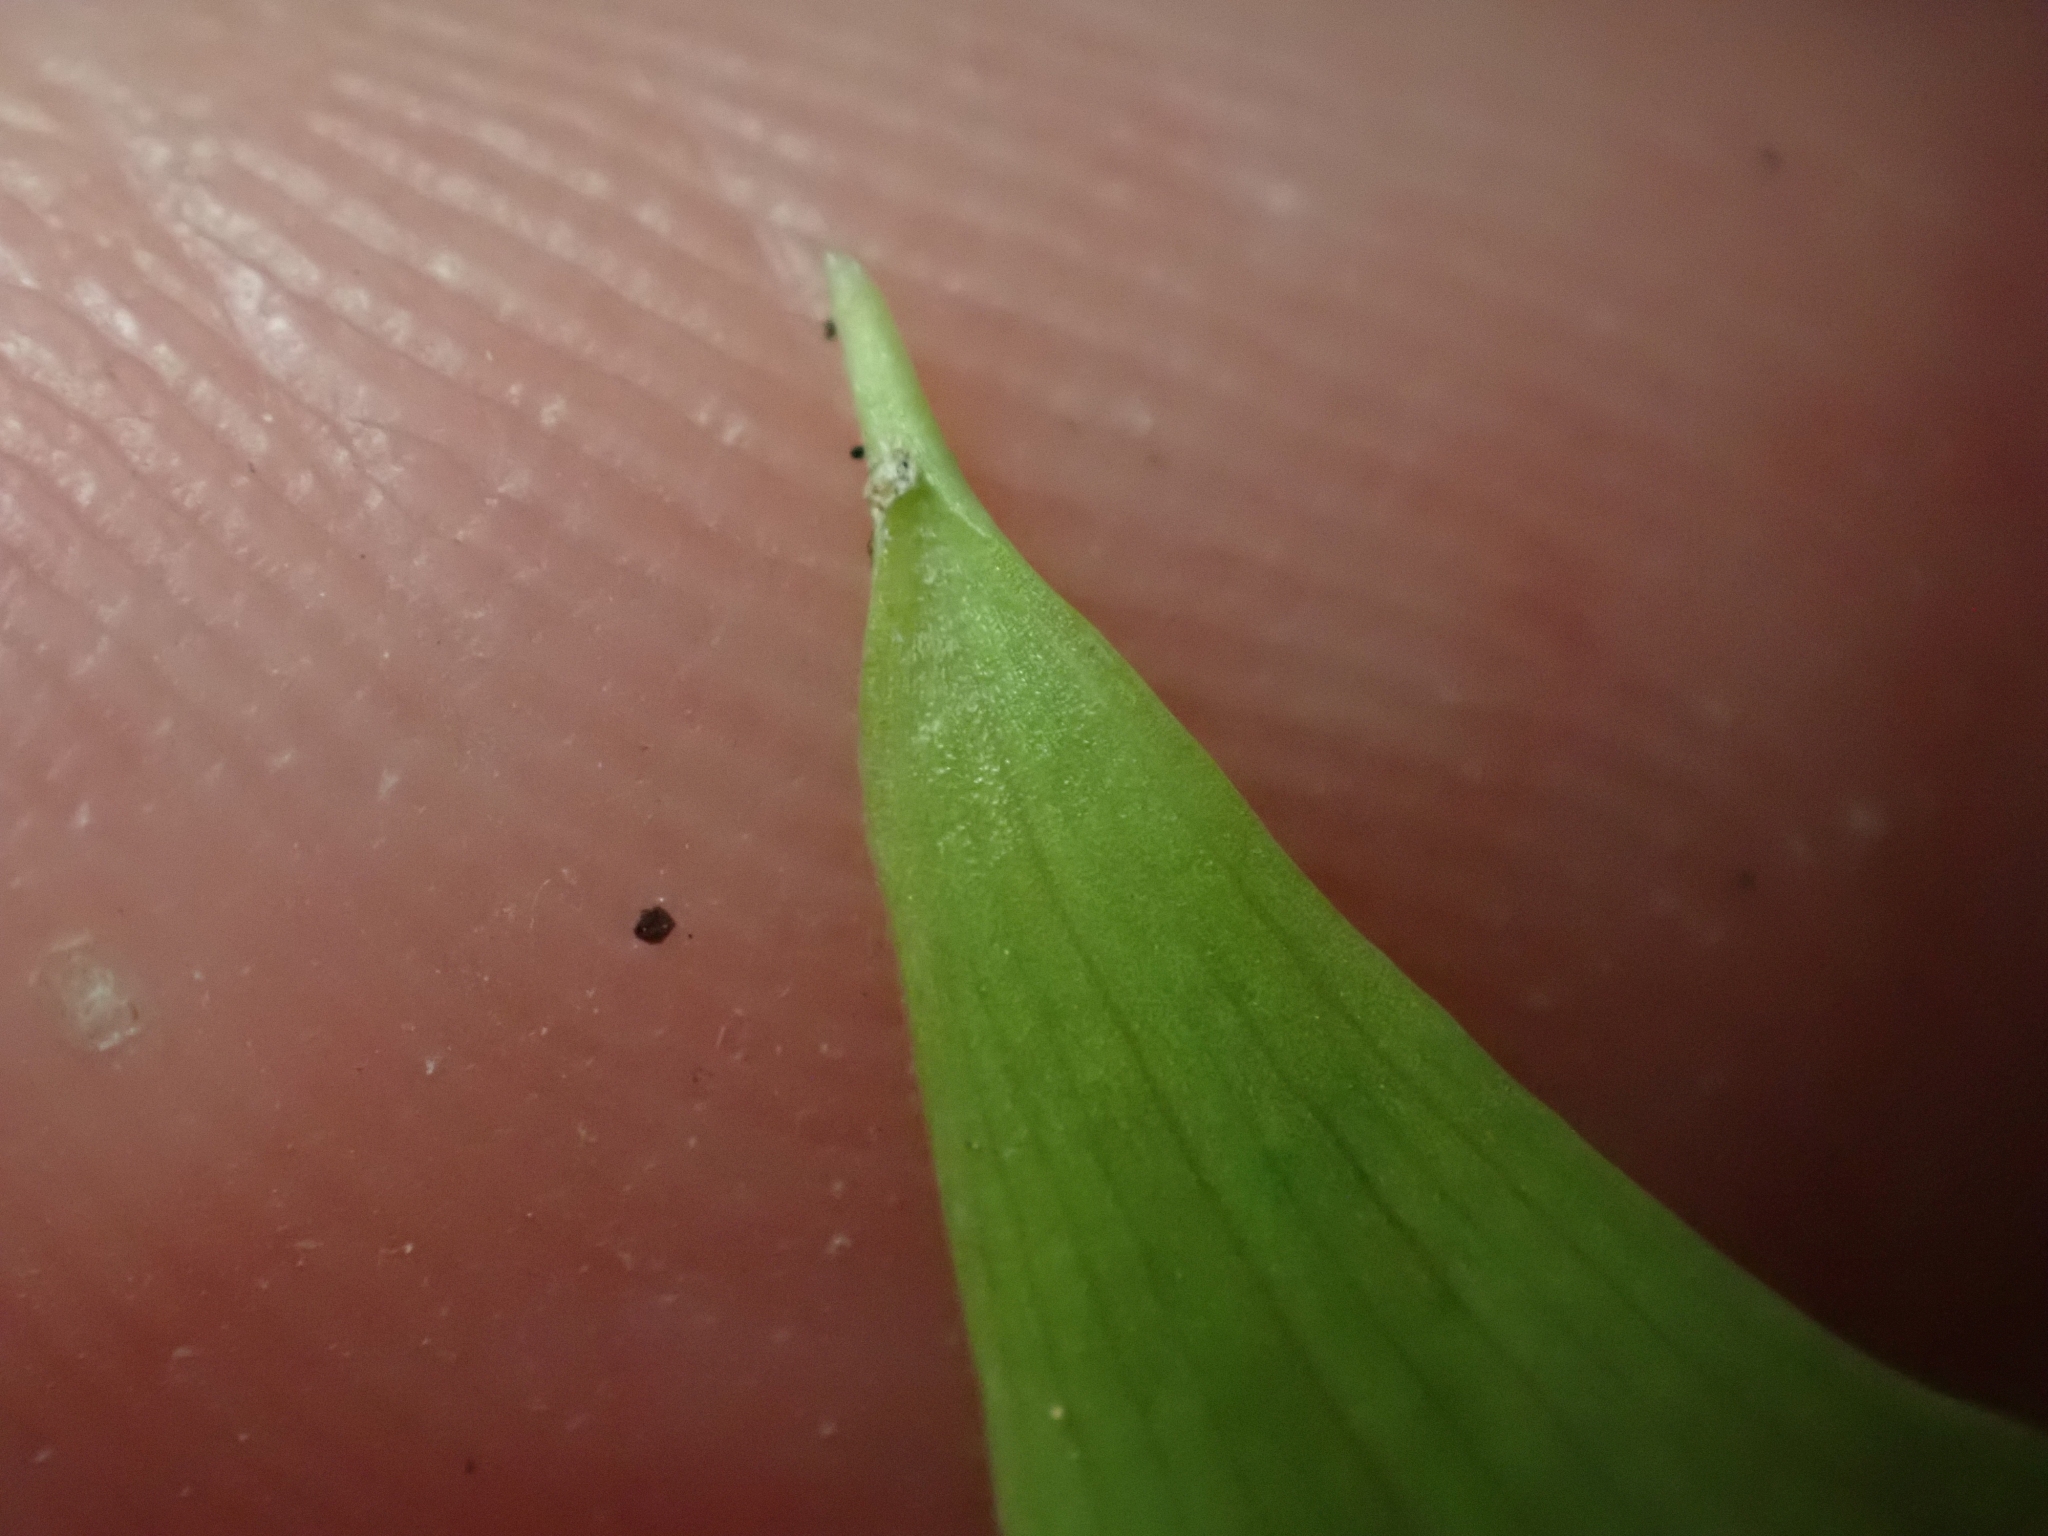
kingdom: Plantae
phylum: Tracheophyta
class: Liliopsida
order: Liliales
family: Liliaceae
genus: Streptopus
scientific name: Streptopus amplexifolius
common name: Clasp twisted stalk
